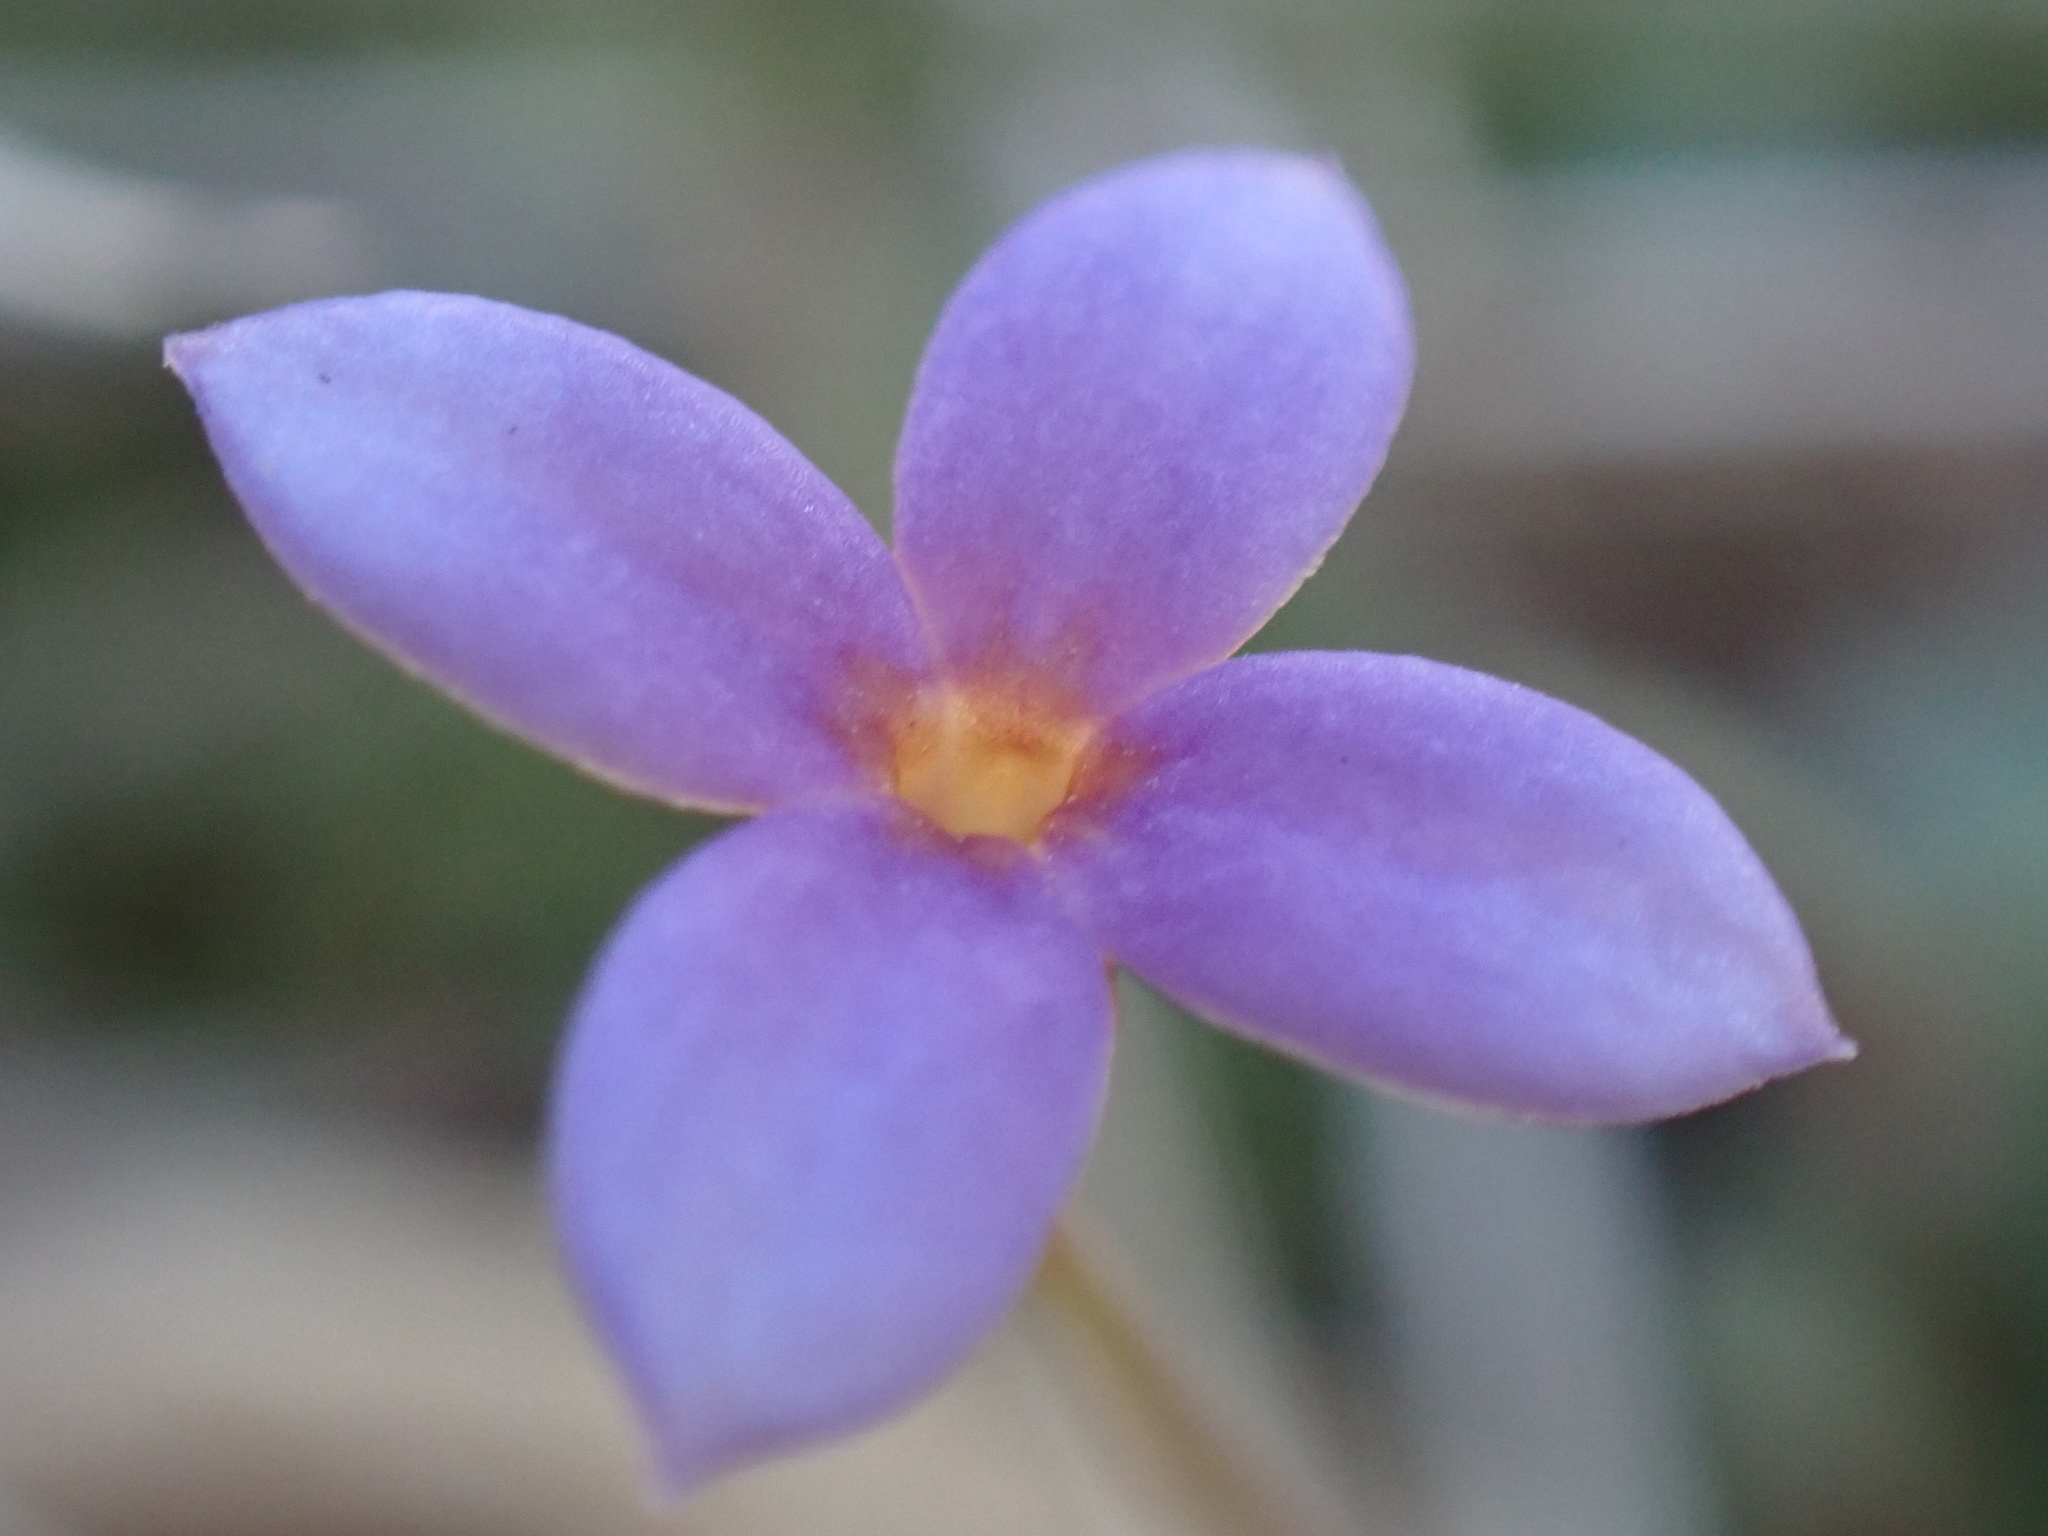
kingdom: Plantae
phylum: Tracheophyta
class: Magnoliopsida
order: Gentianales
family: Rubiaceae
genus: Houstonia
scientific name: Houstonia pusilla
